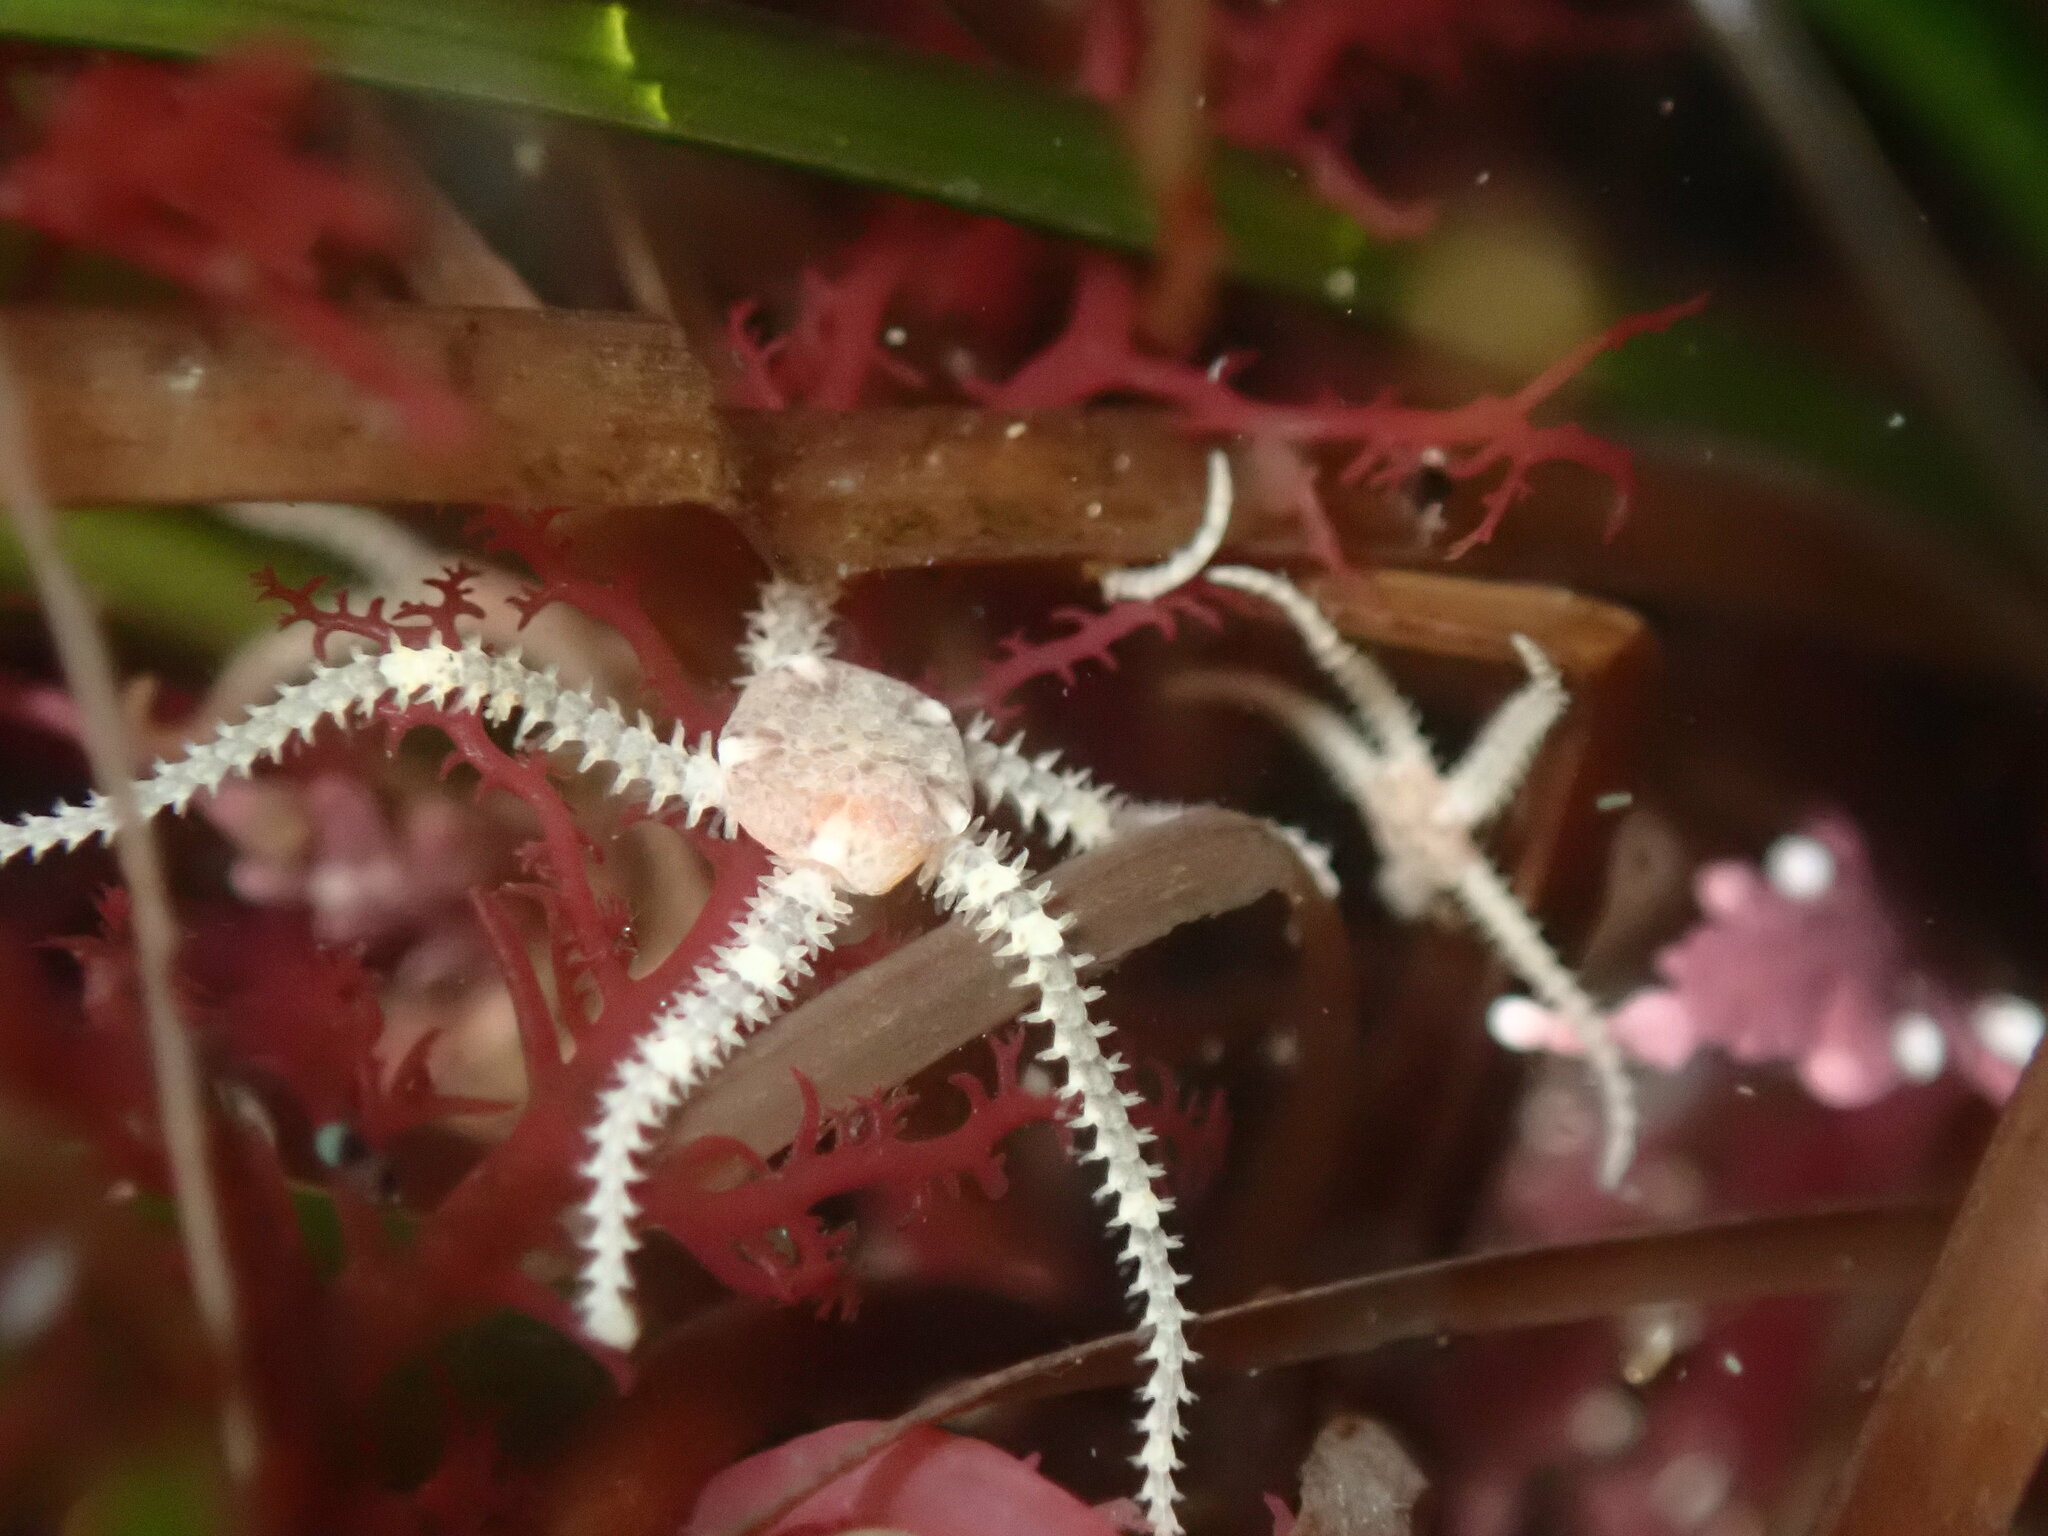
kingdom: Animalia
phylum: Echinodermata
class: Ophiuroidea
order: Amphilepidida
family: Amphiuridae
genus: Amphipholis
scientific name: Amphipholis squamata
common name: Brooding snake star
